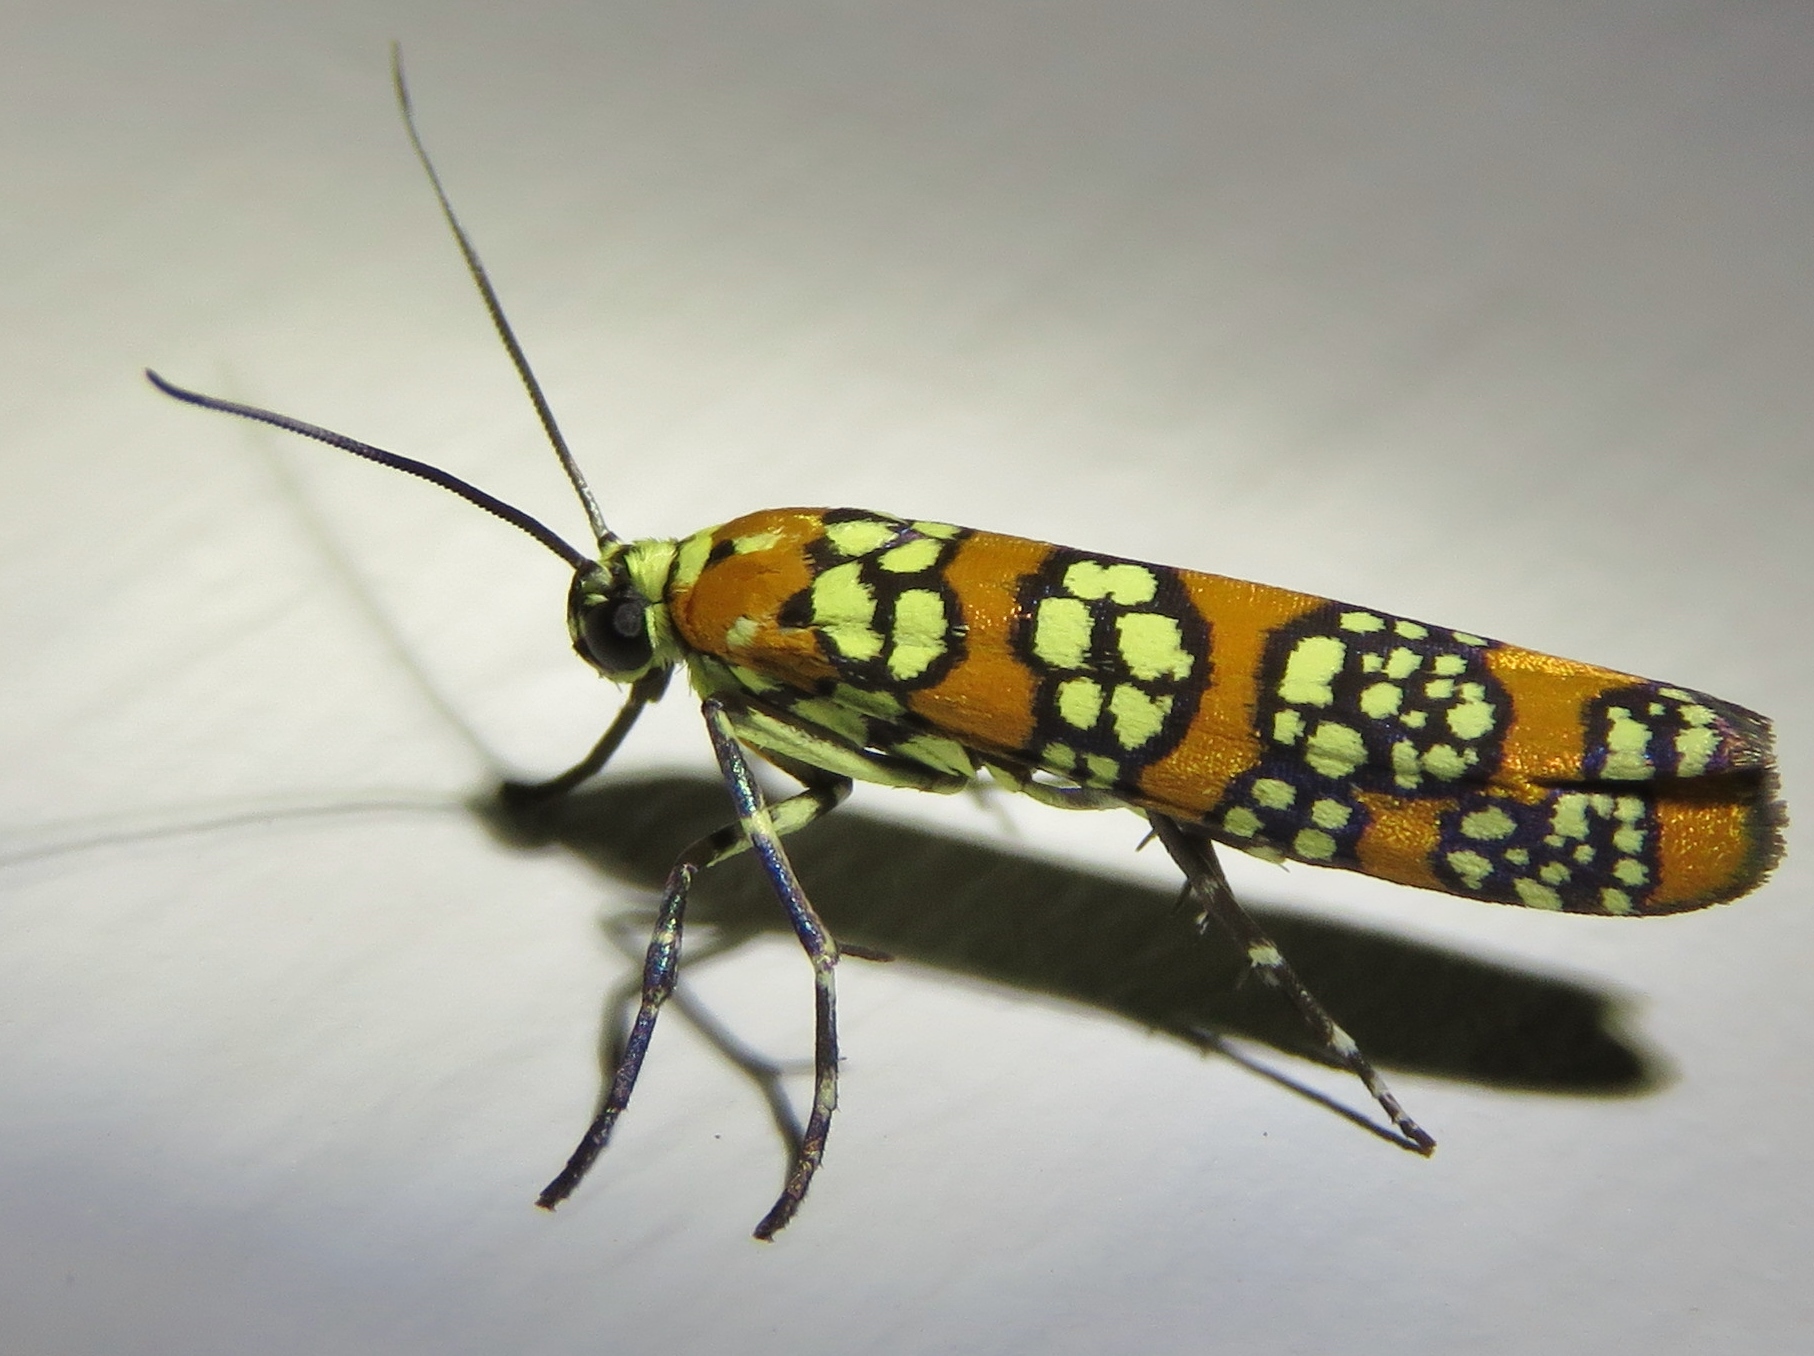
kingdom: Animalia
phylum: Arthropoda
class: Insecta
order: Lepidoptera
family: Attevidae
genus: Atteva
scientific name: Atteva punctella
